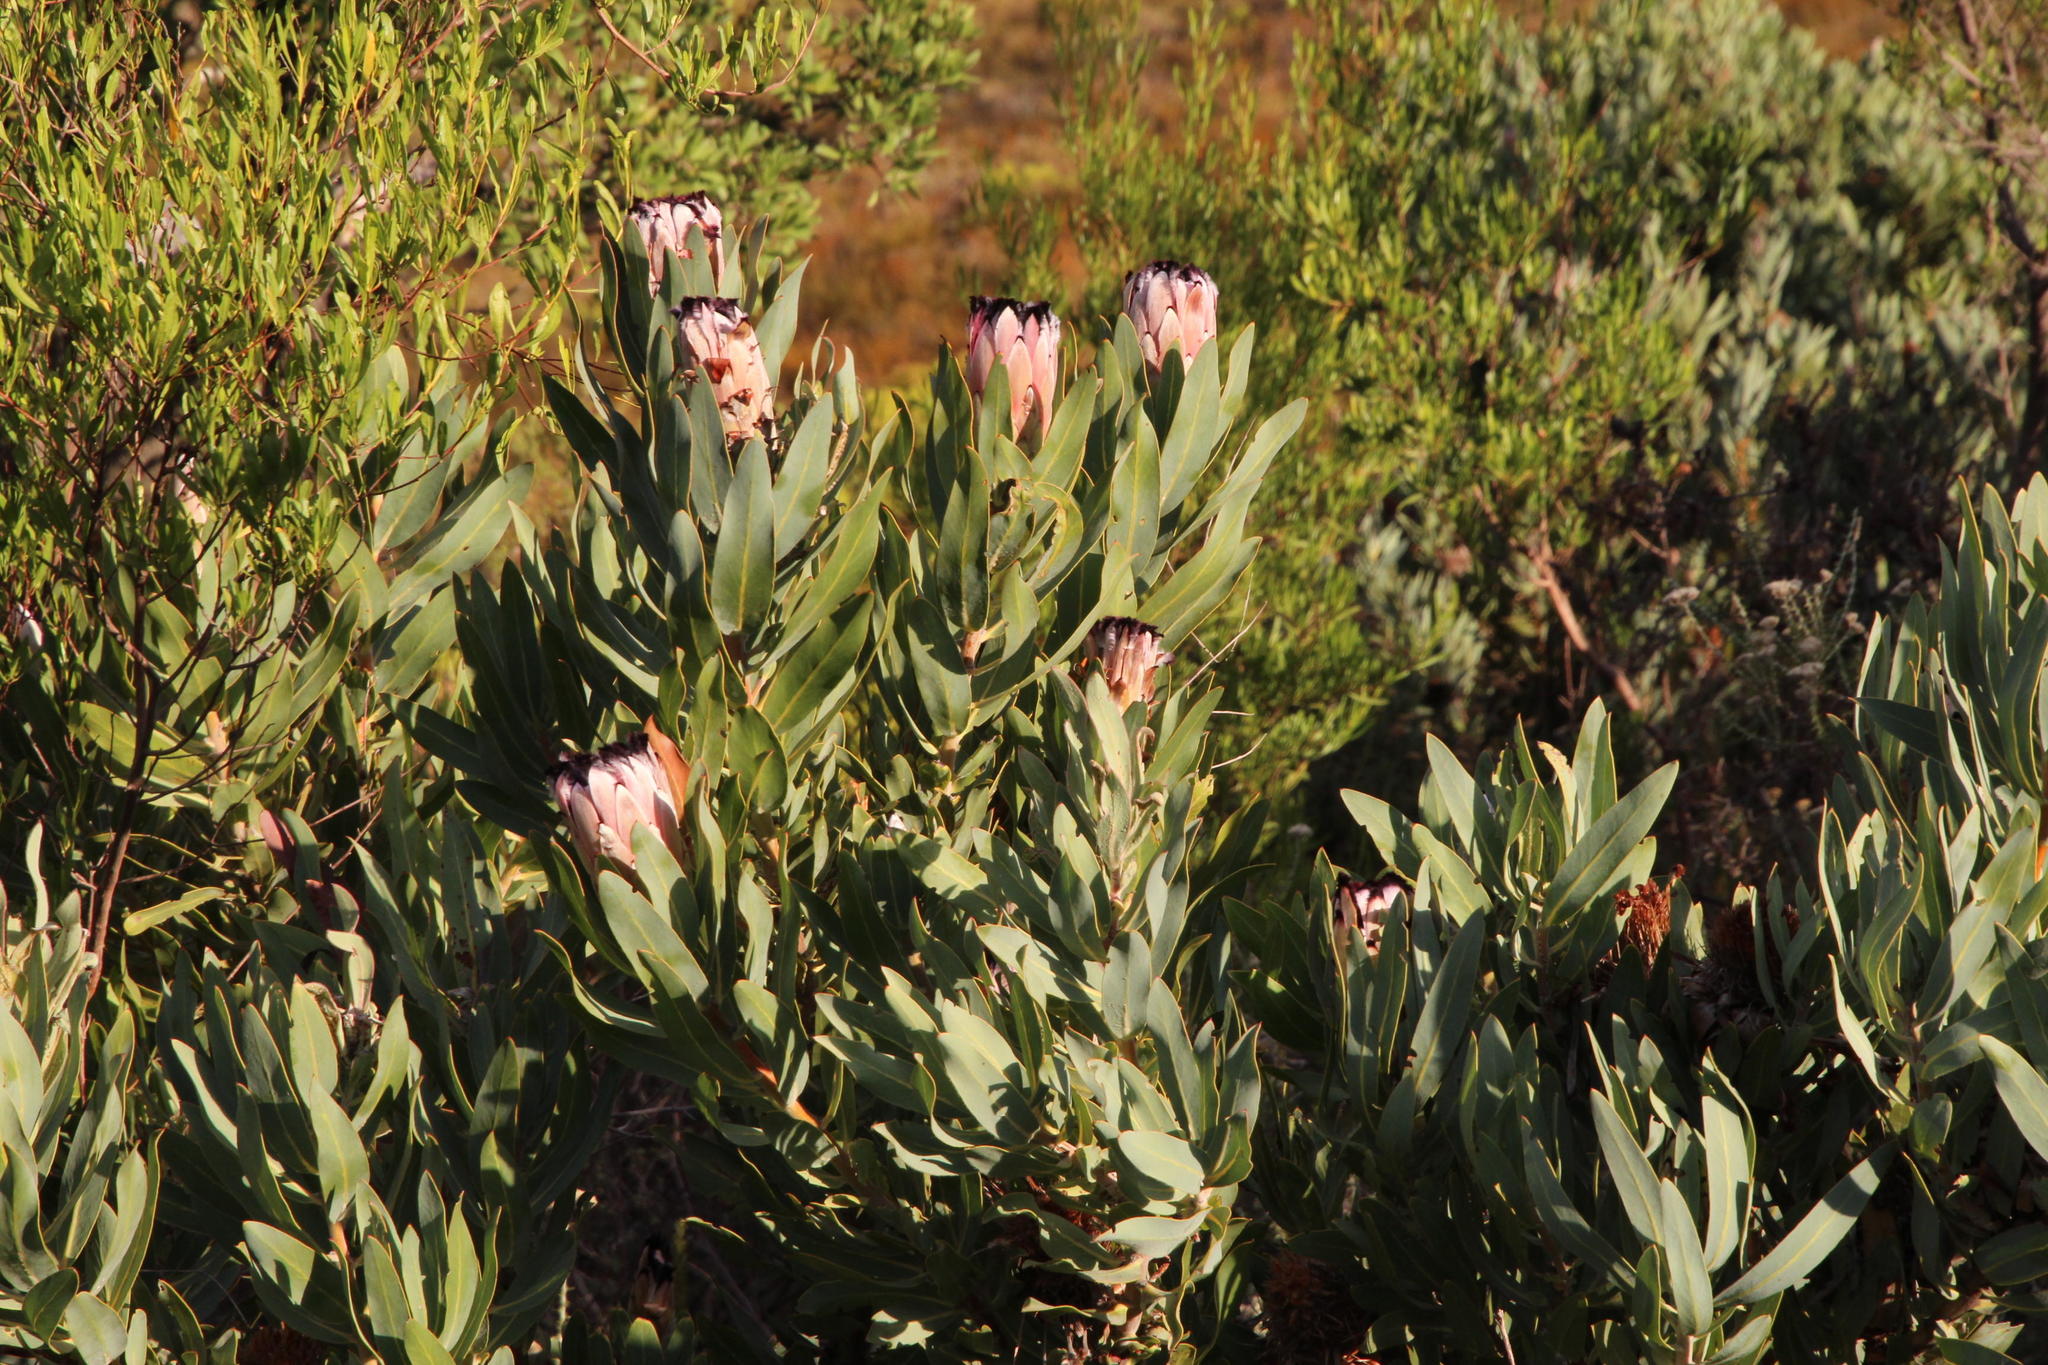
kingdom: Plantae
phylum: Tracheophyta
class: Magnoliopsida
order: Proteales
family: Proteaceae
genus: Protea
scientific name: Protea laurifolia
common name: Grey-leaf sugarbsh
